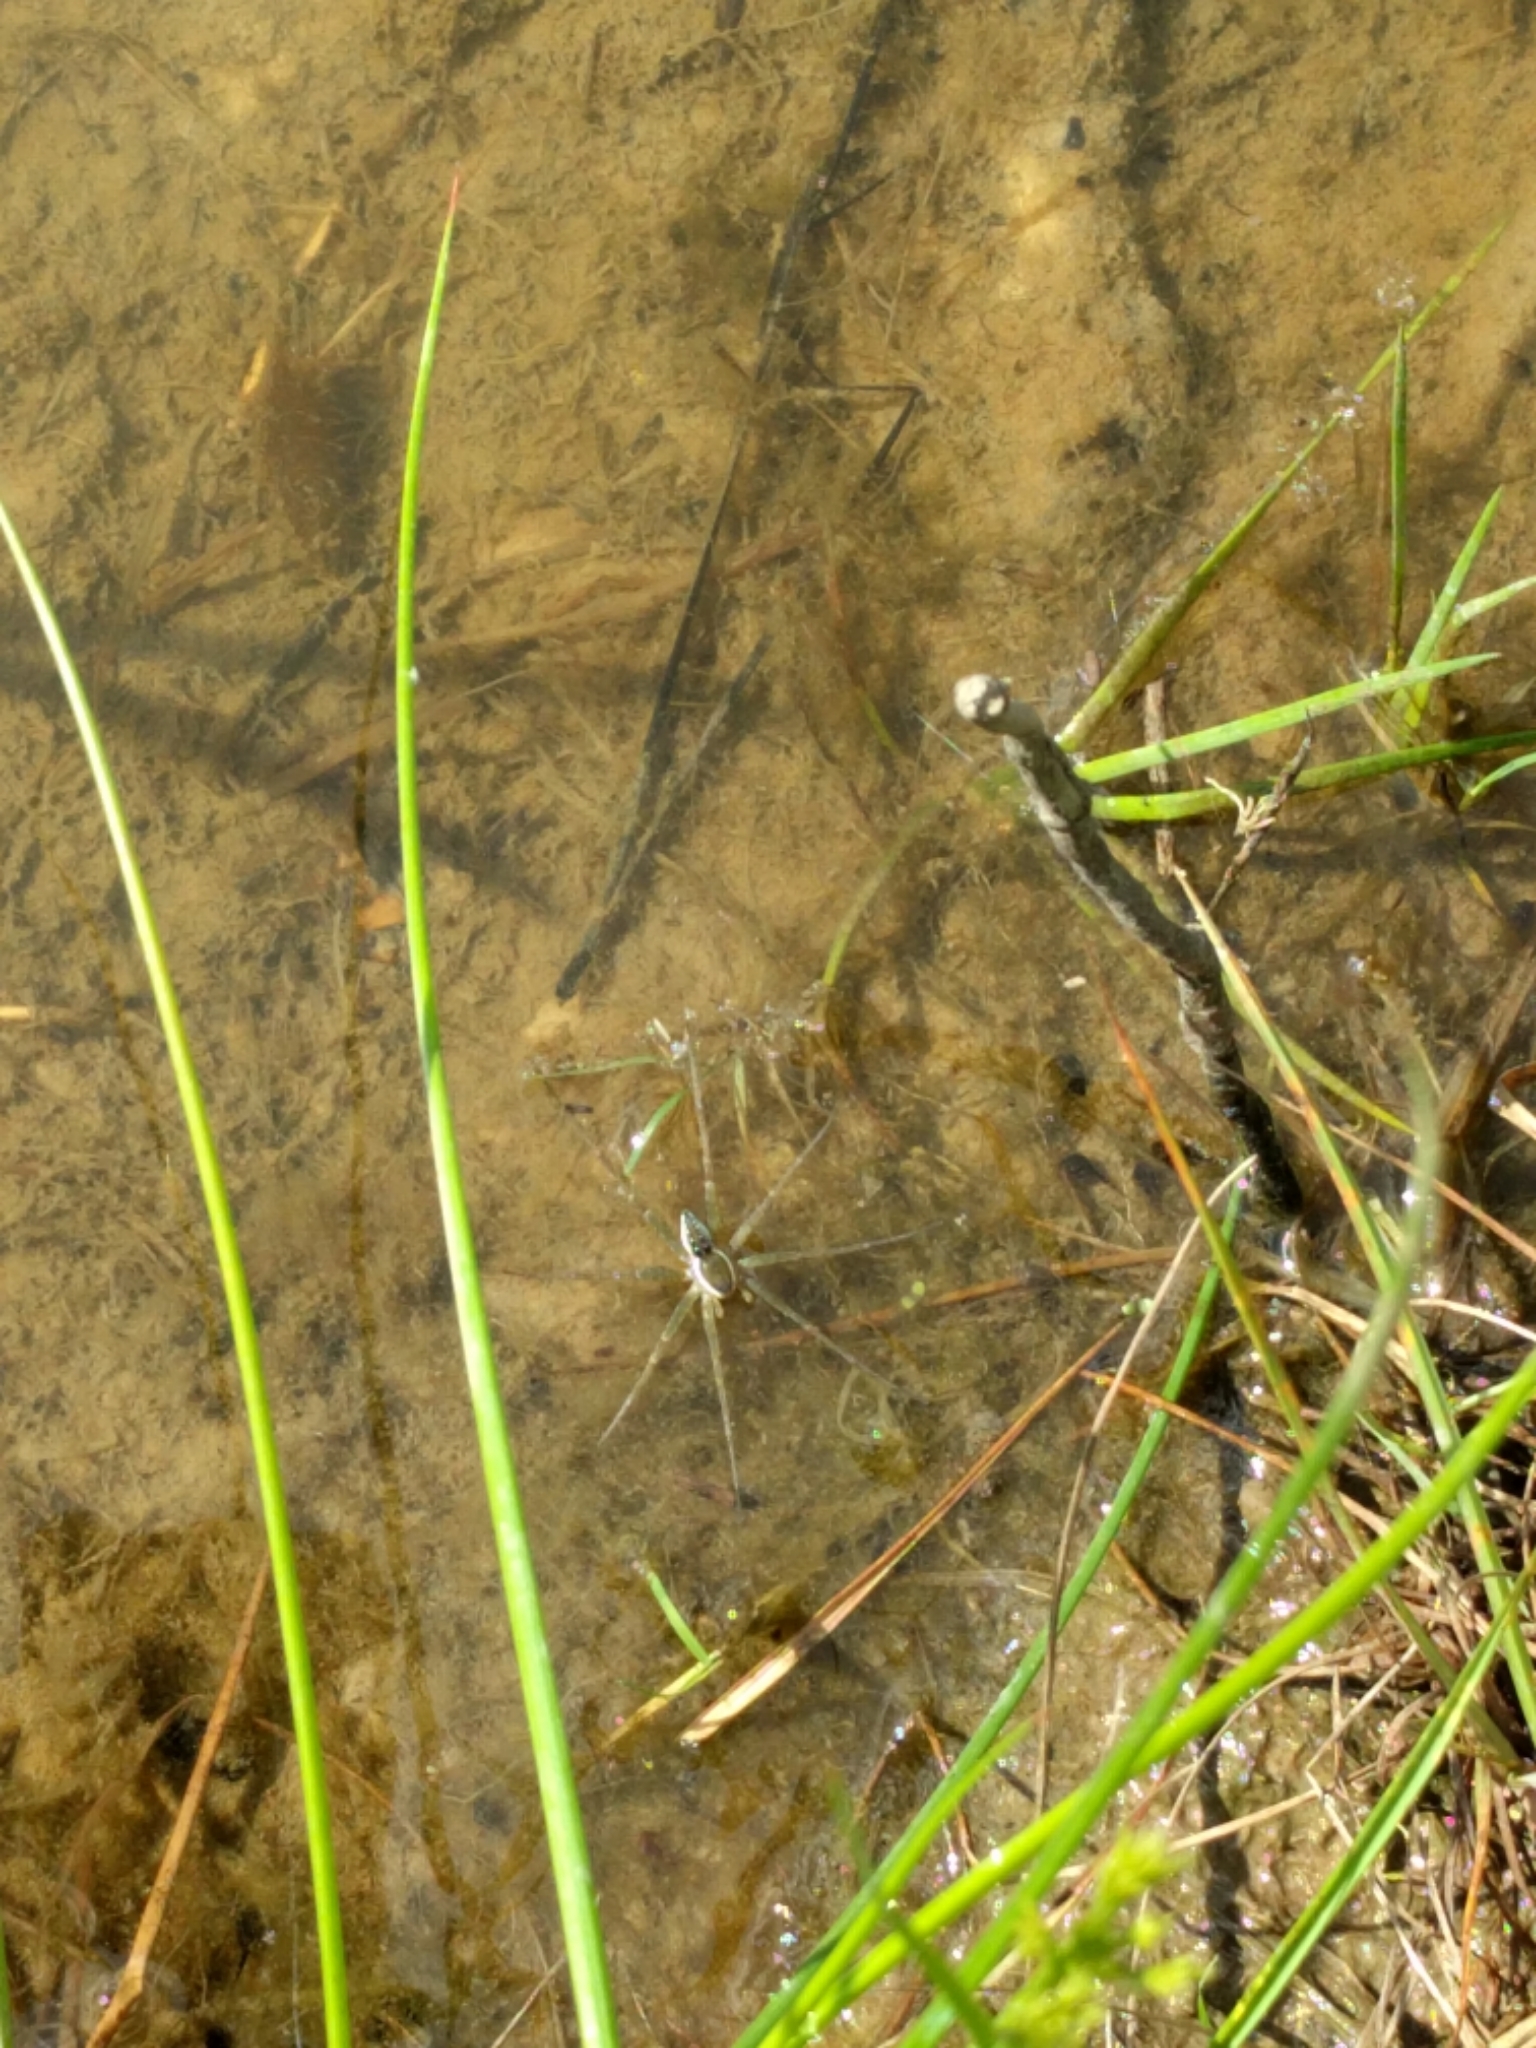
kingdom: Animalia
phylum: Arthropoda
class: Arachnida
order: Araneae
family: Pisauridae
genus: Dolomedes
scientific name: Dolomedes triton
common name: Six-spotted fishing spider
